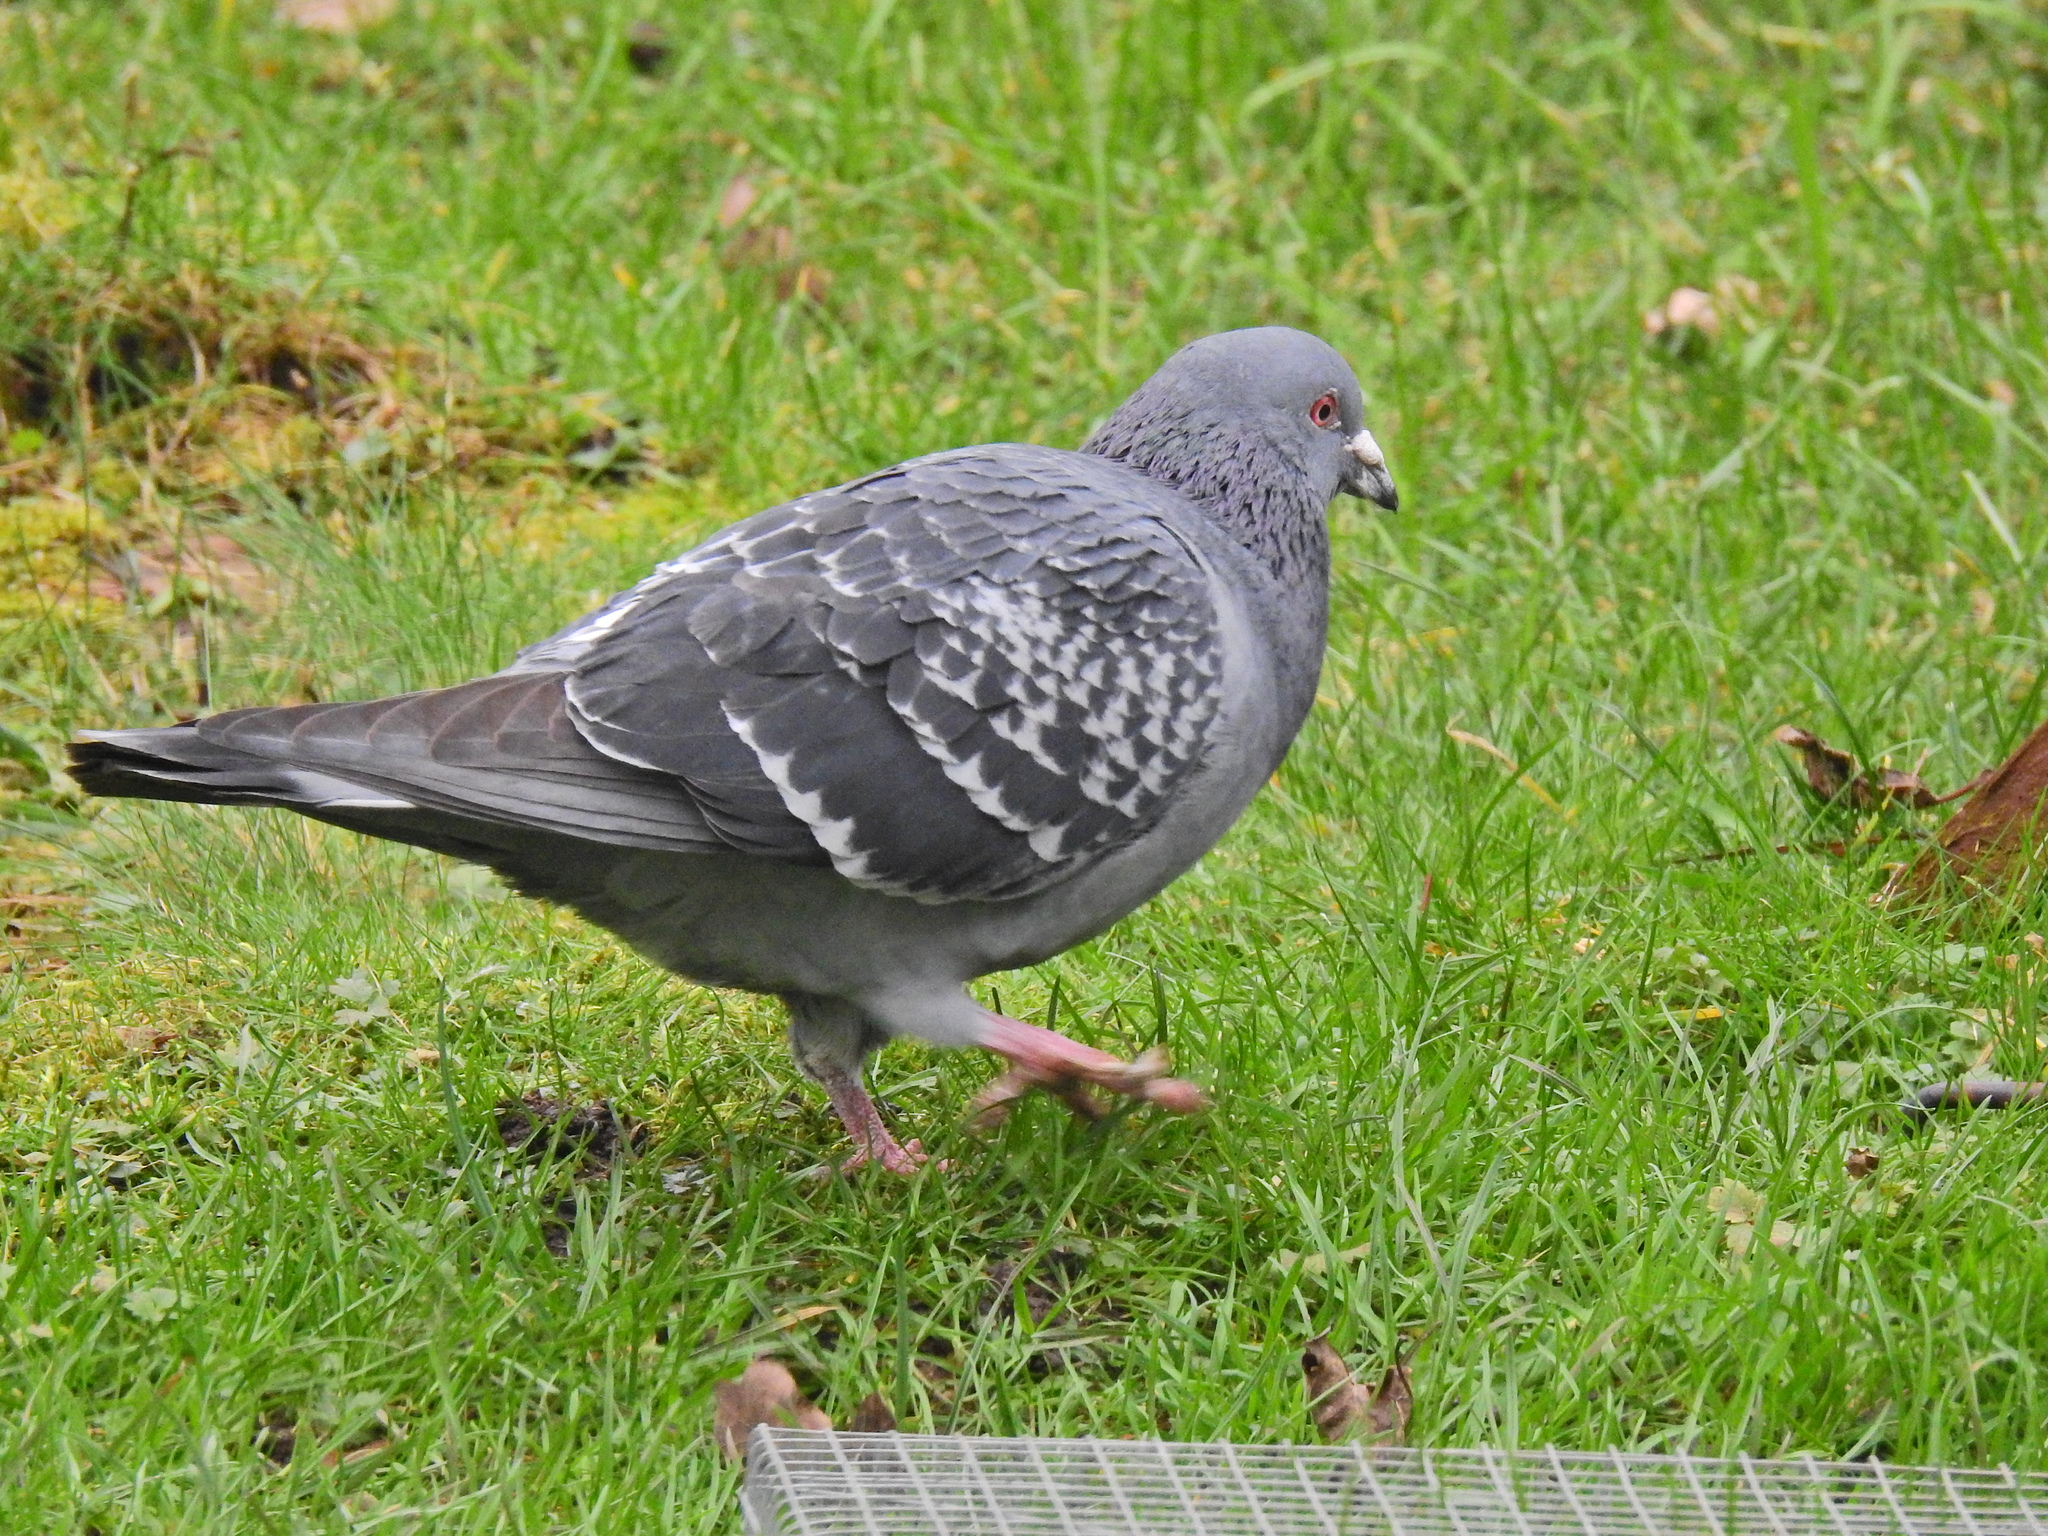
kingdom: Animalia
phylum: Chordata
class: Aves
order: Columbiformes
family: Columbidae
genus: Columba
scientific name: Columba livia
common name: Rock pigeon
